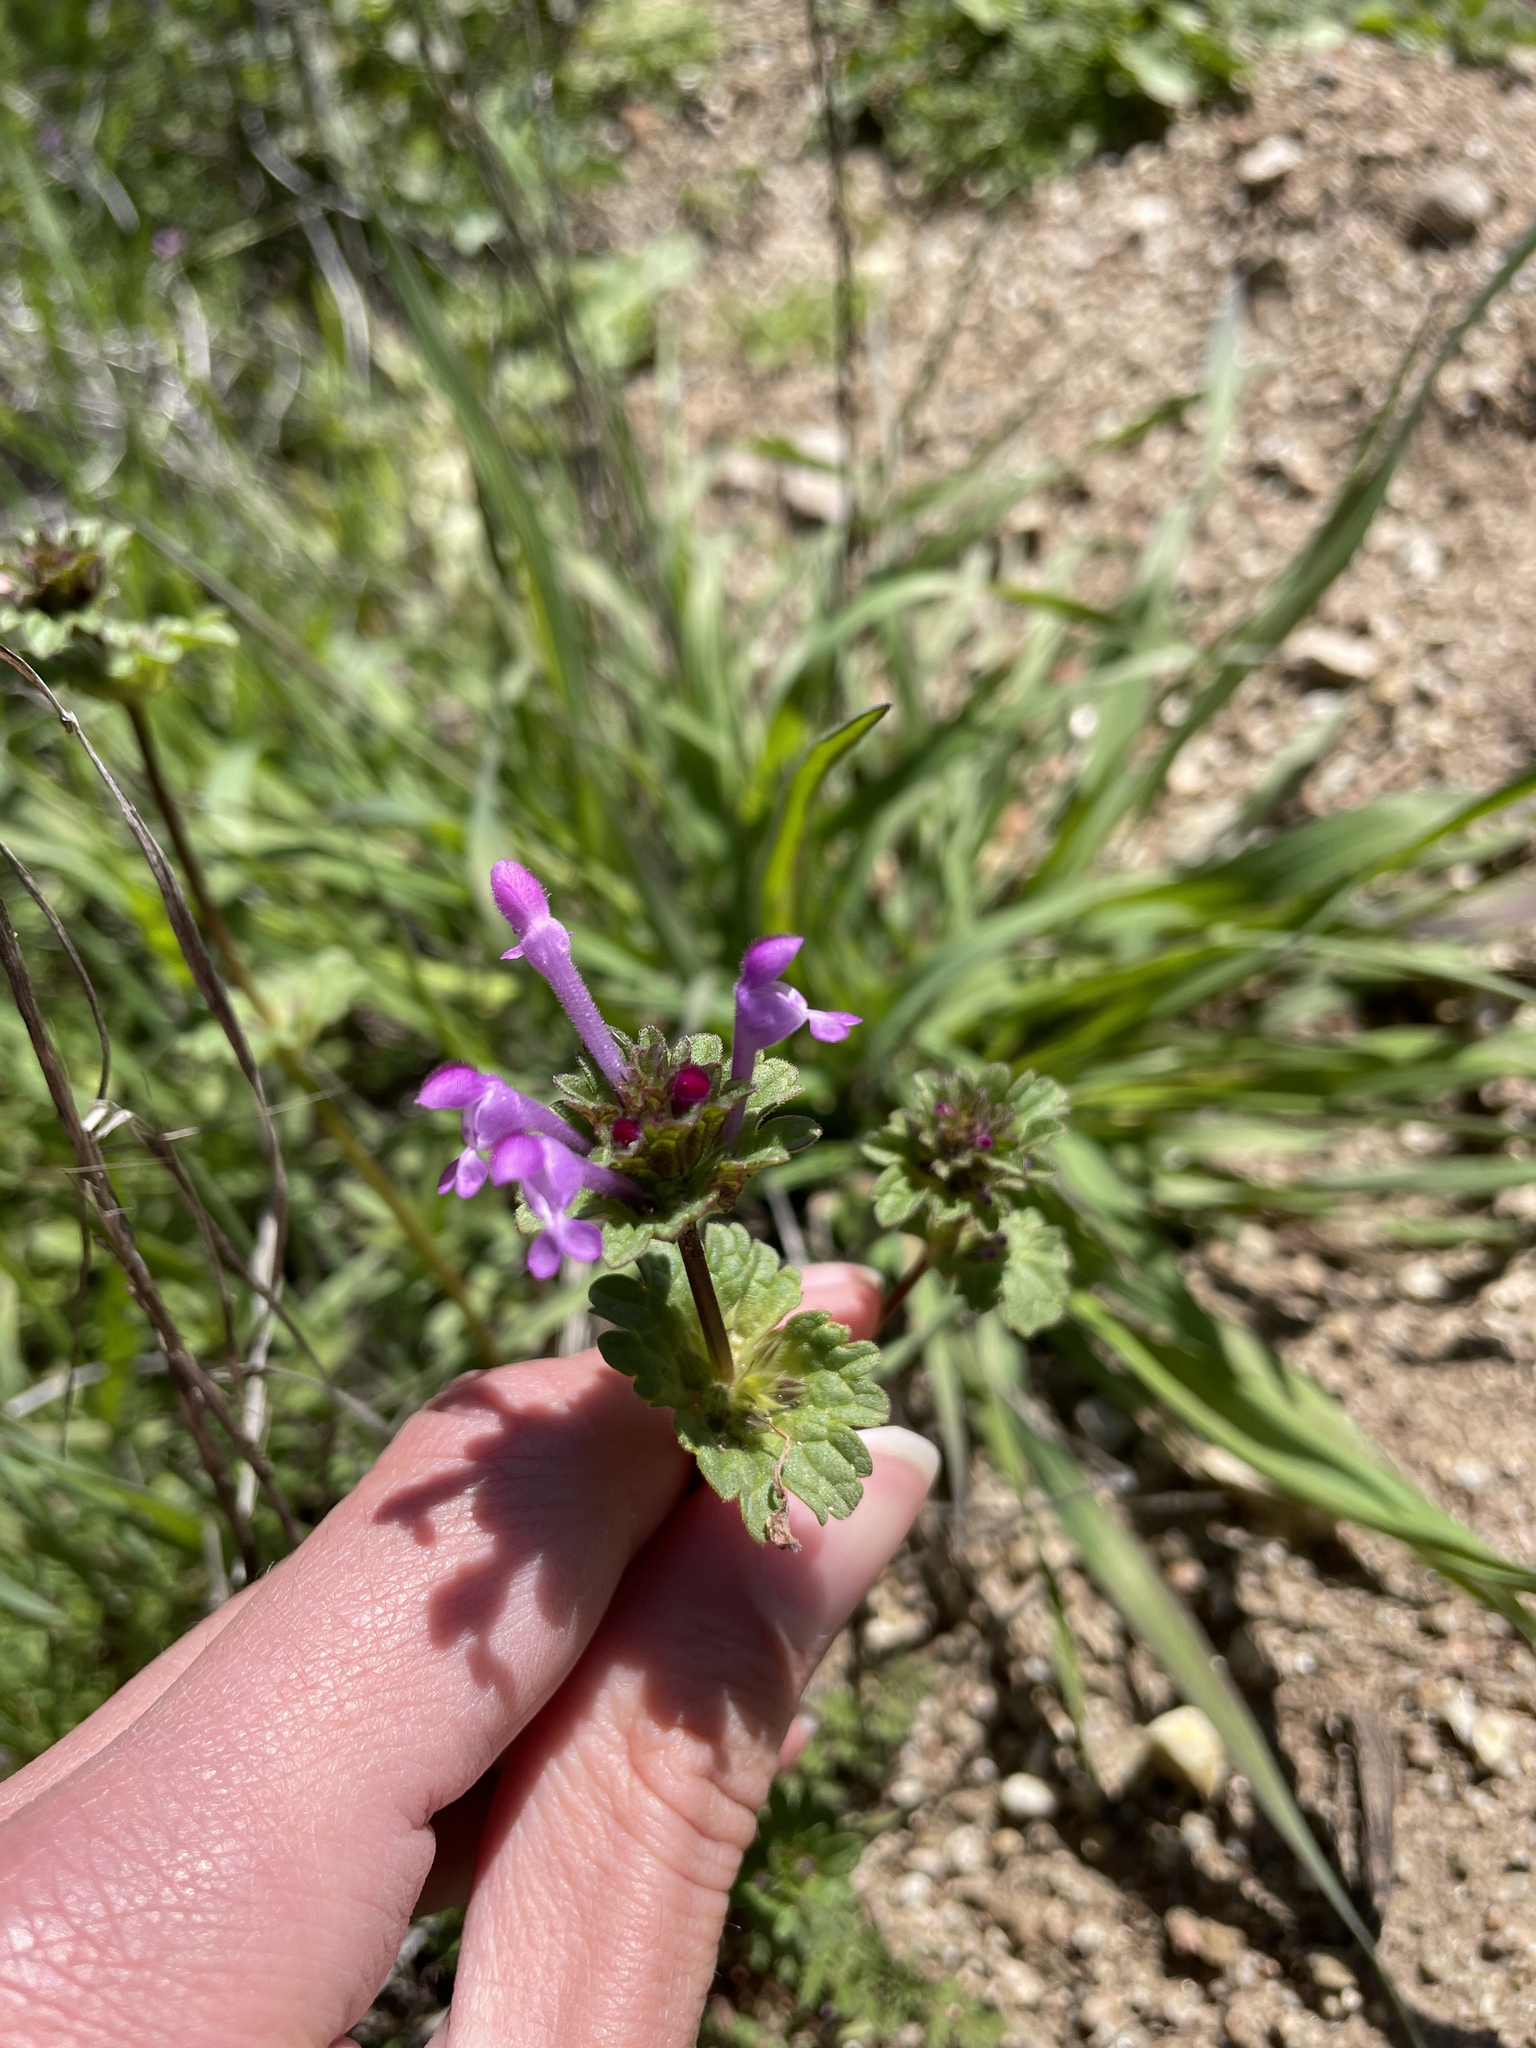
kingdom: Plantae
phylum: Tracheophyta
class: Magnoliopsida
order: Lamiales
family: Lamiaceae
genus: Lamium
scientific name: Lamium amplexicaule
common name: Henbit dead-nettle
